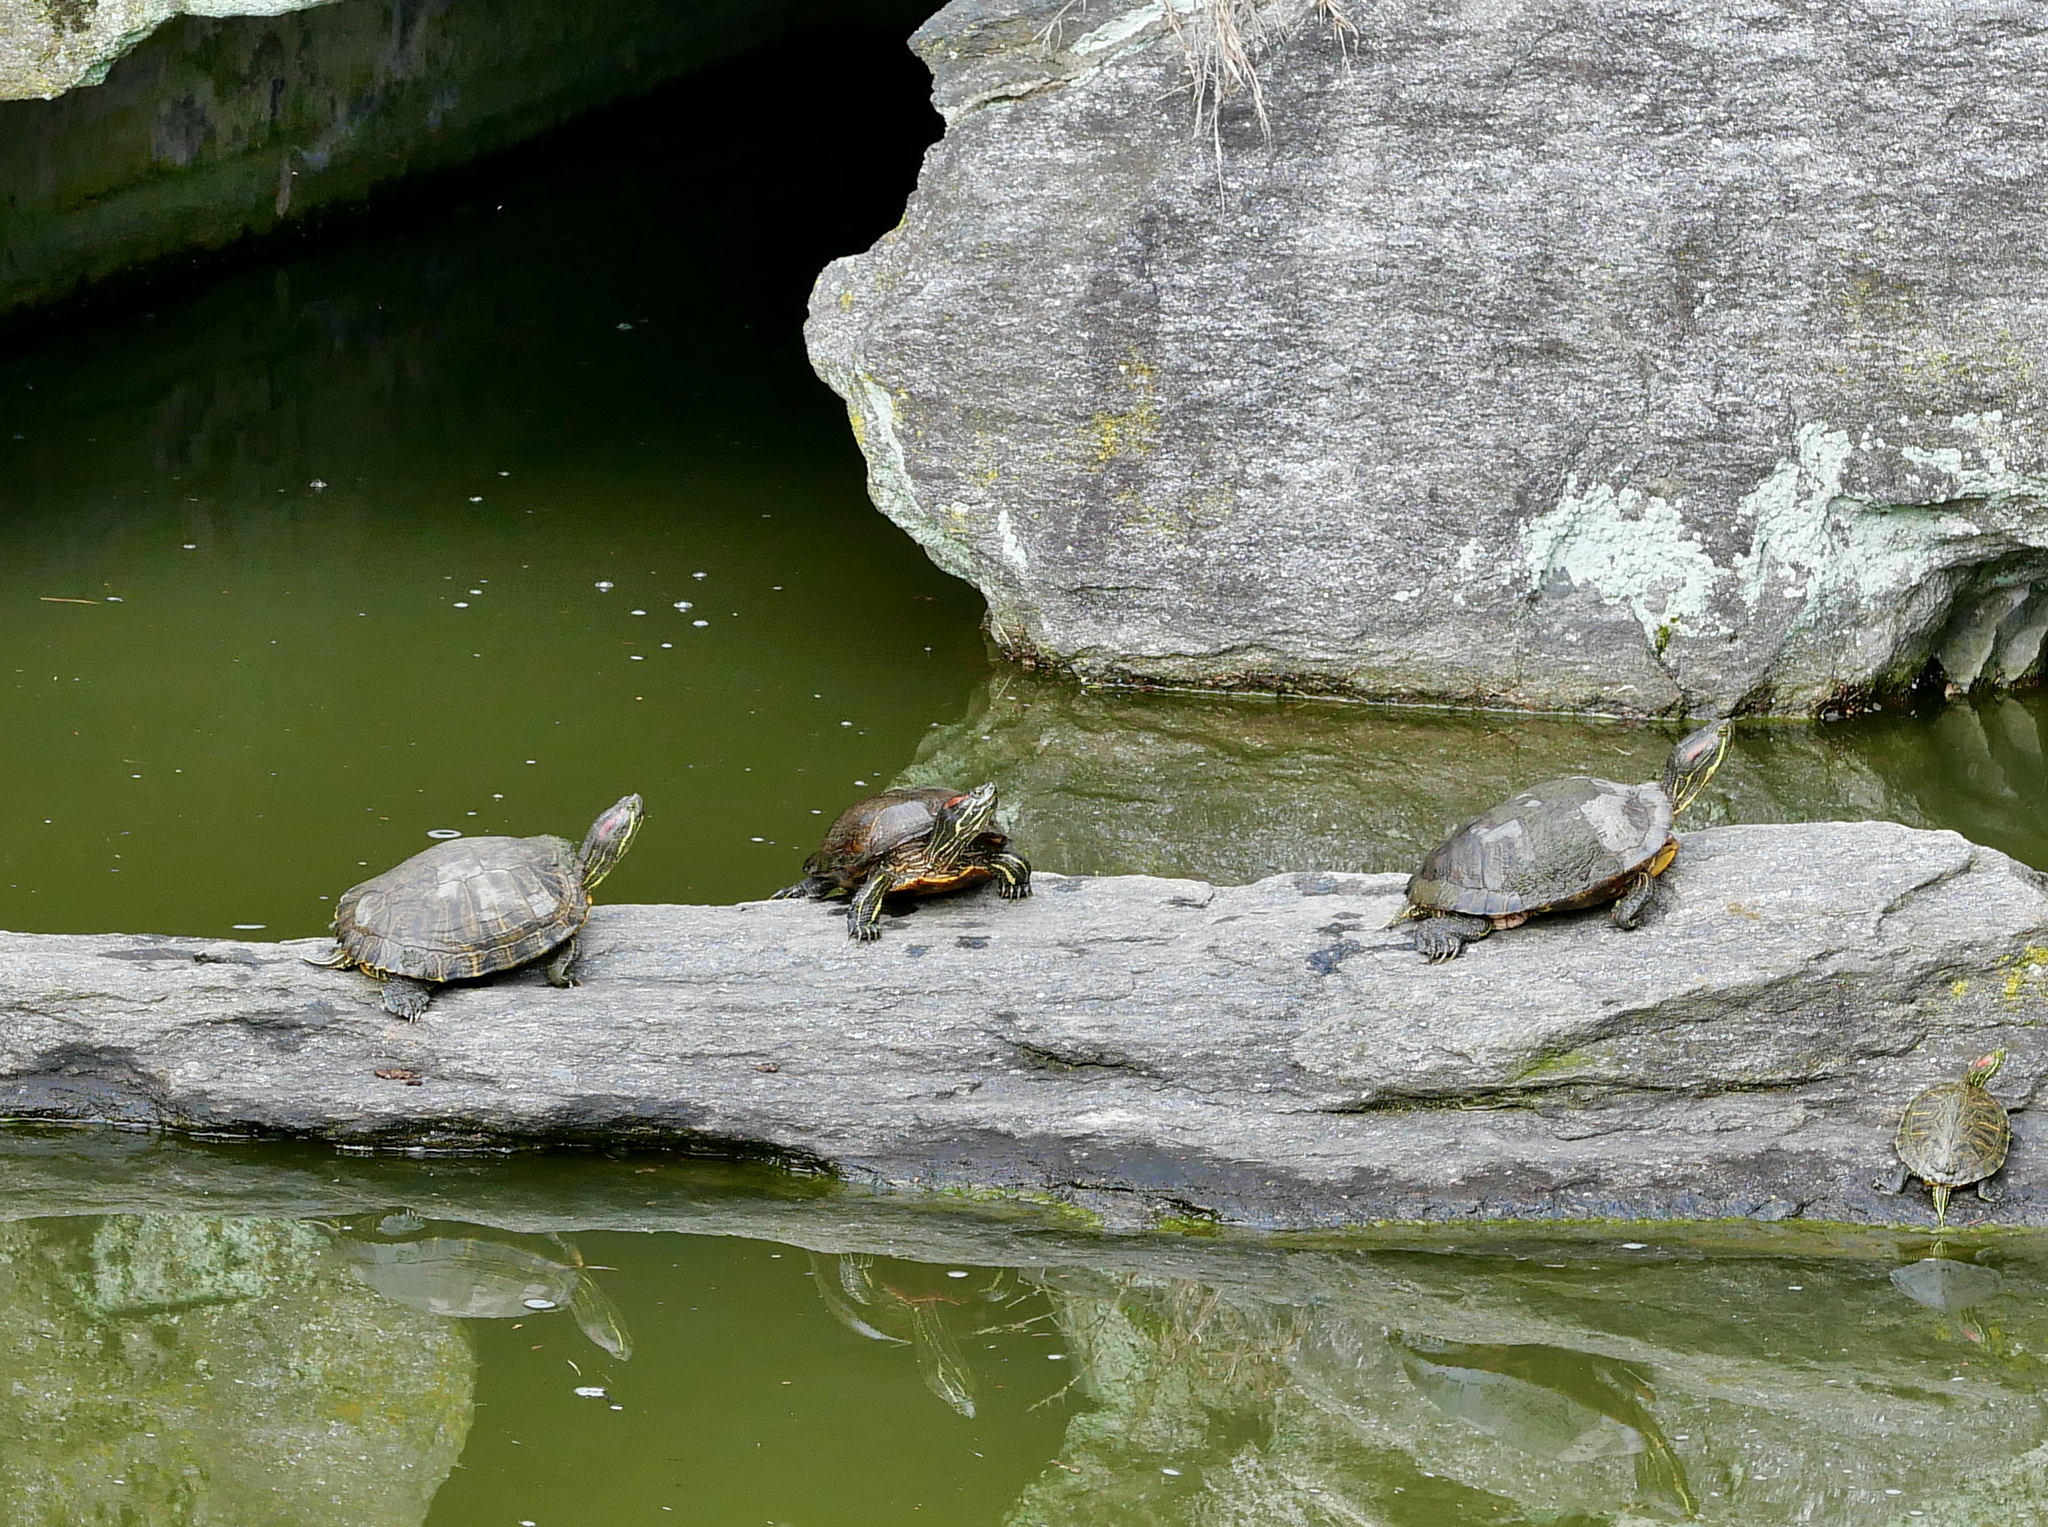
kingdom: Animalia
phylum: Chordata
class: Testudines
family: Emydidae
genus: Trachemys
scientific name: Trachemys scripta
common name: Slider
